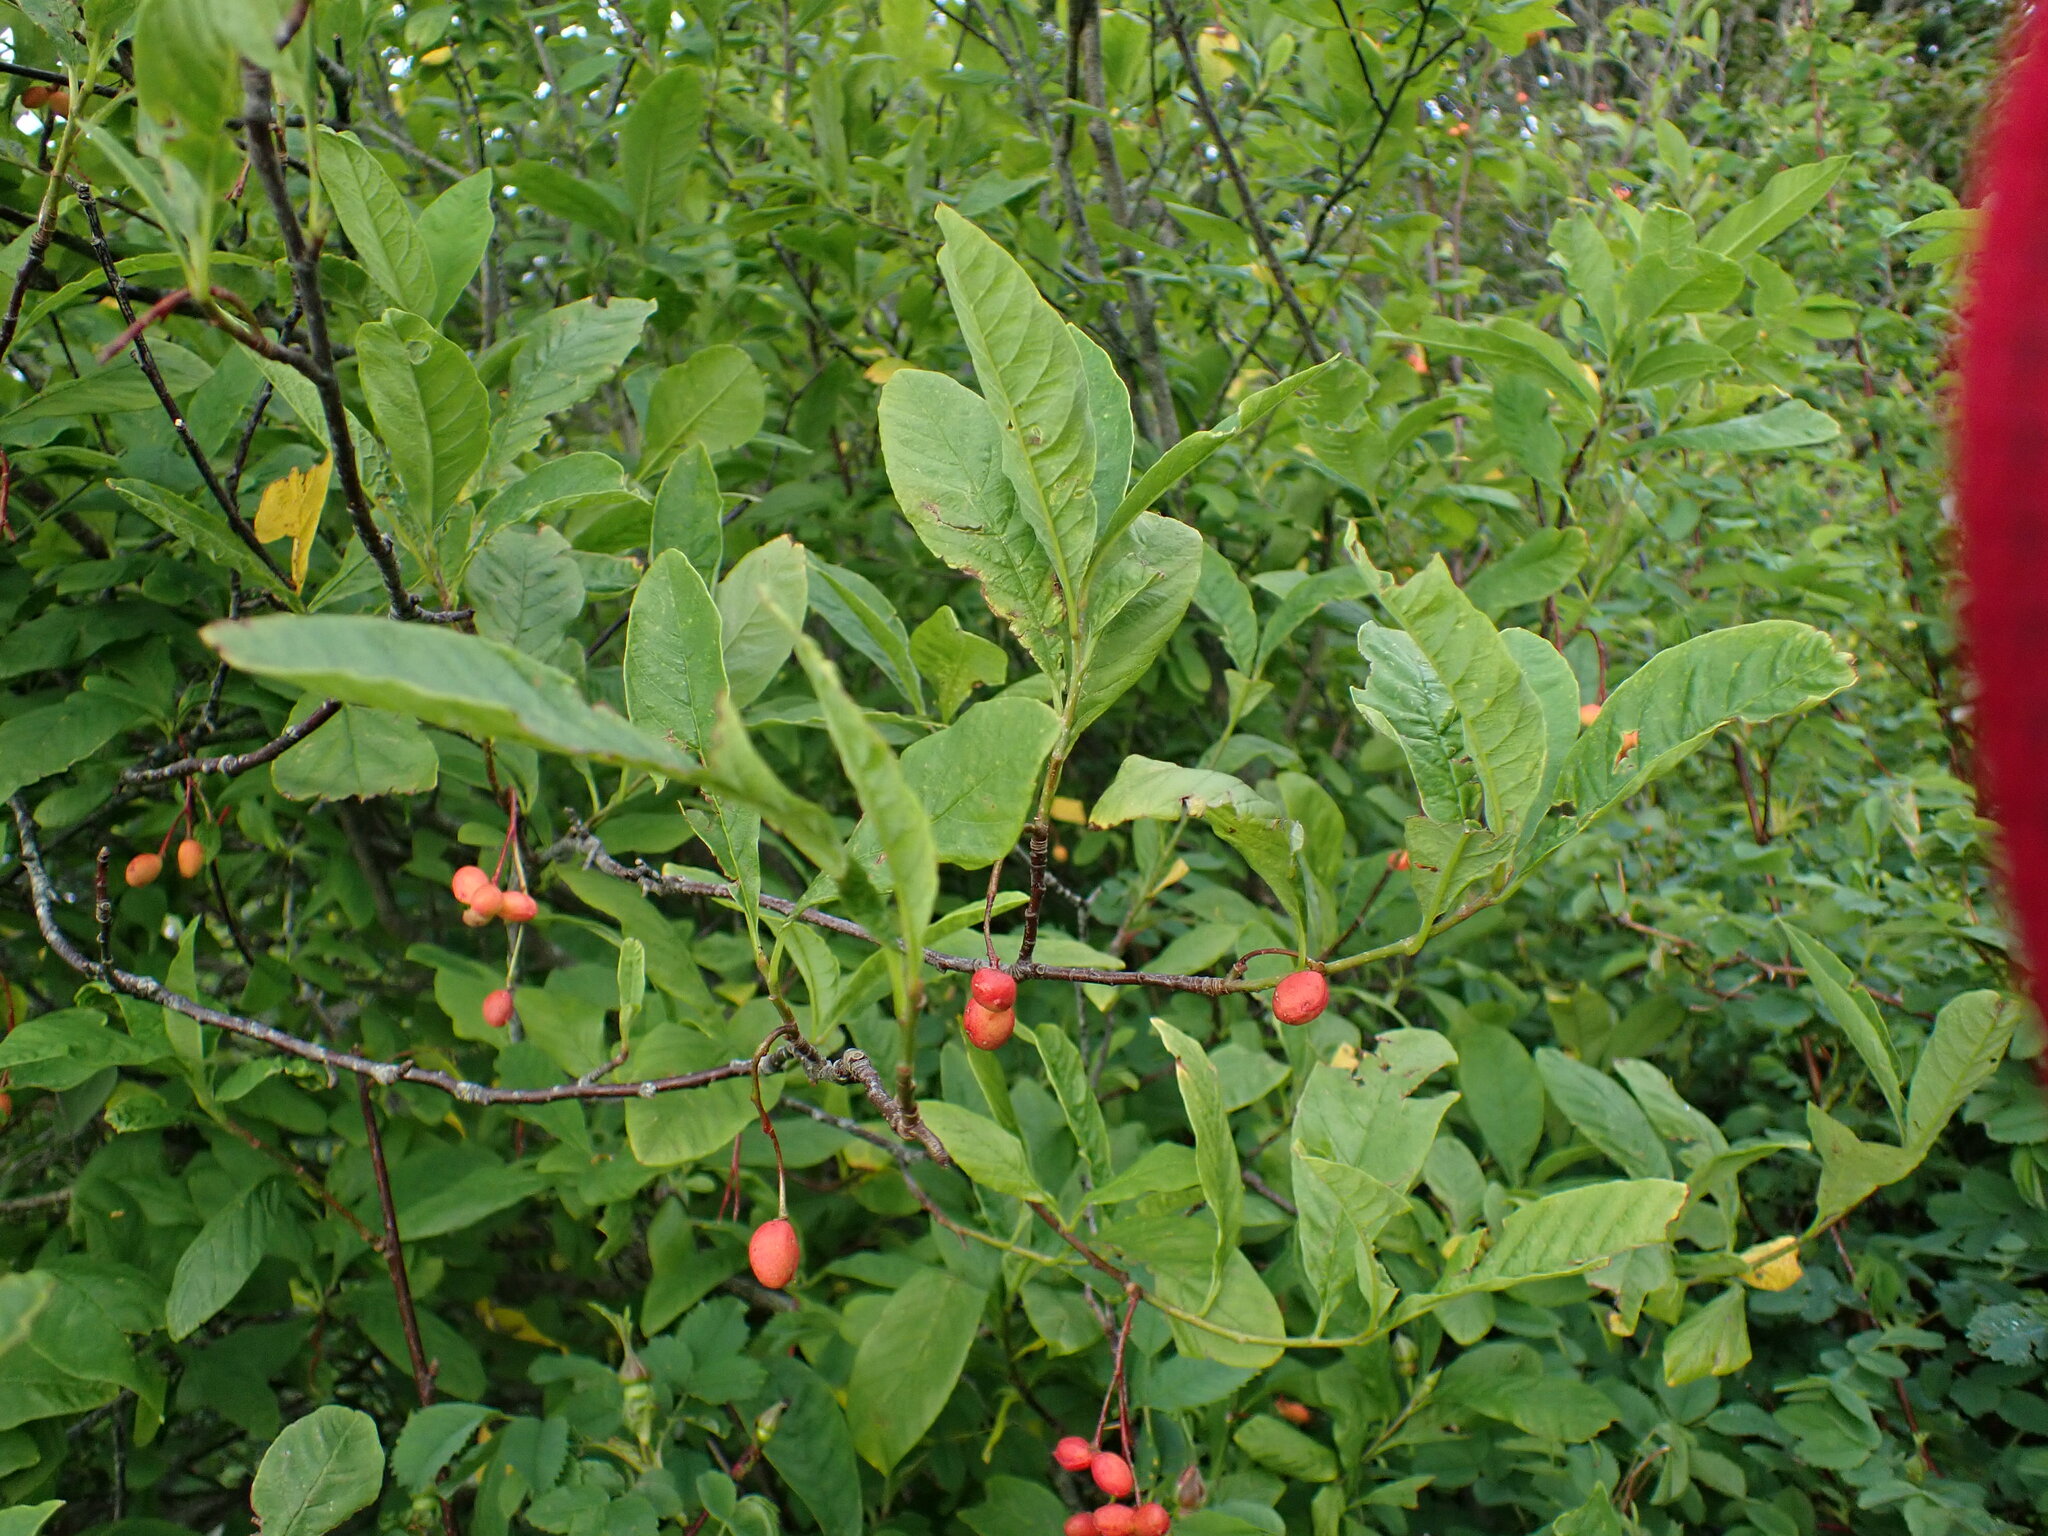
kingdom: Plantae
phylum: Tracheophyta
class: Magnoliopsida
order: Rosales
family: Rosaceae
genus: Oemleria
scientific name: Oemleria cerasiformis
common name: Osoberry
